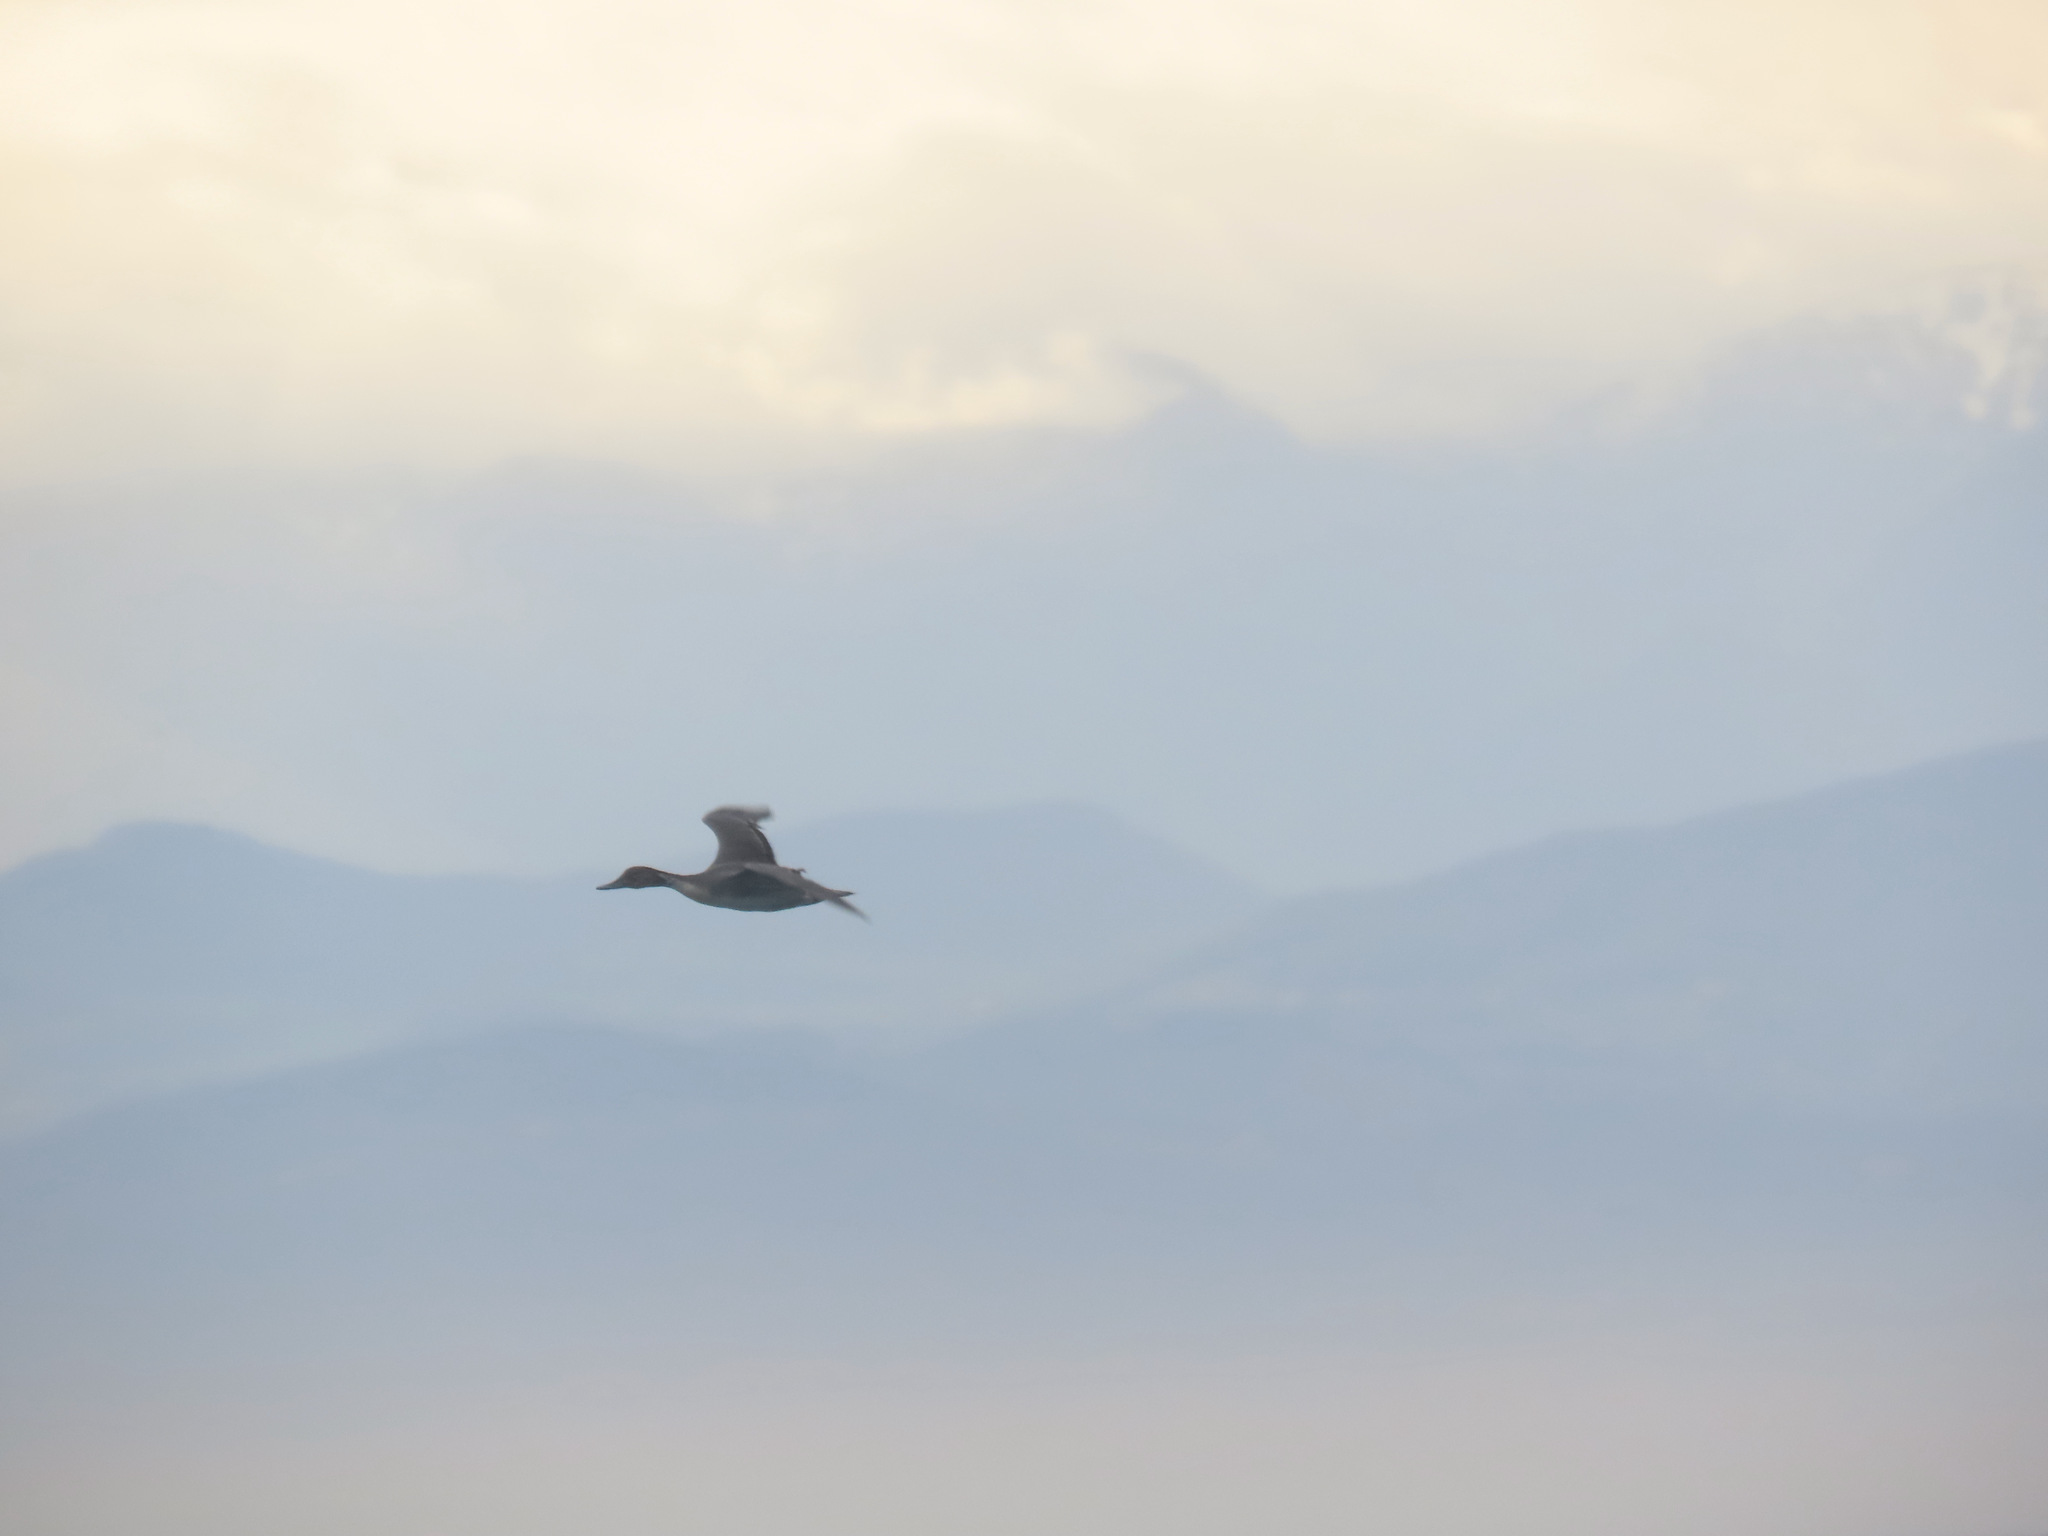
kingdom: Animalia
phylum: Chordata
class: Aves
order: Anseriformes
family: Anatidae
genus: Anas
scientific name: Anas acuta
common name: Northern pintail
